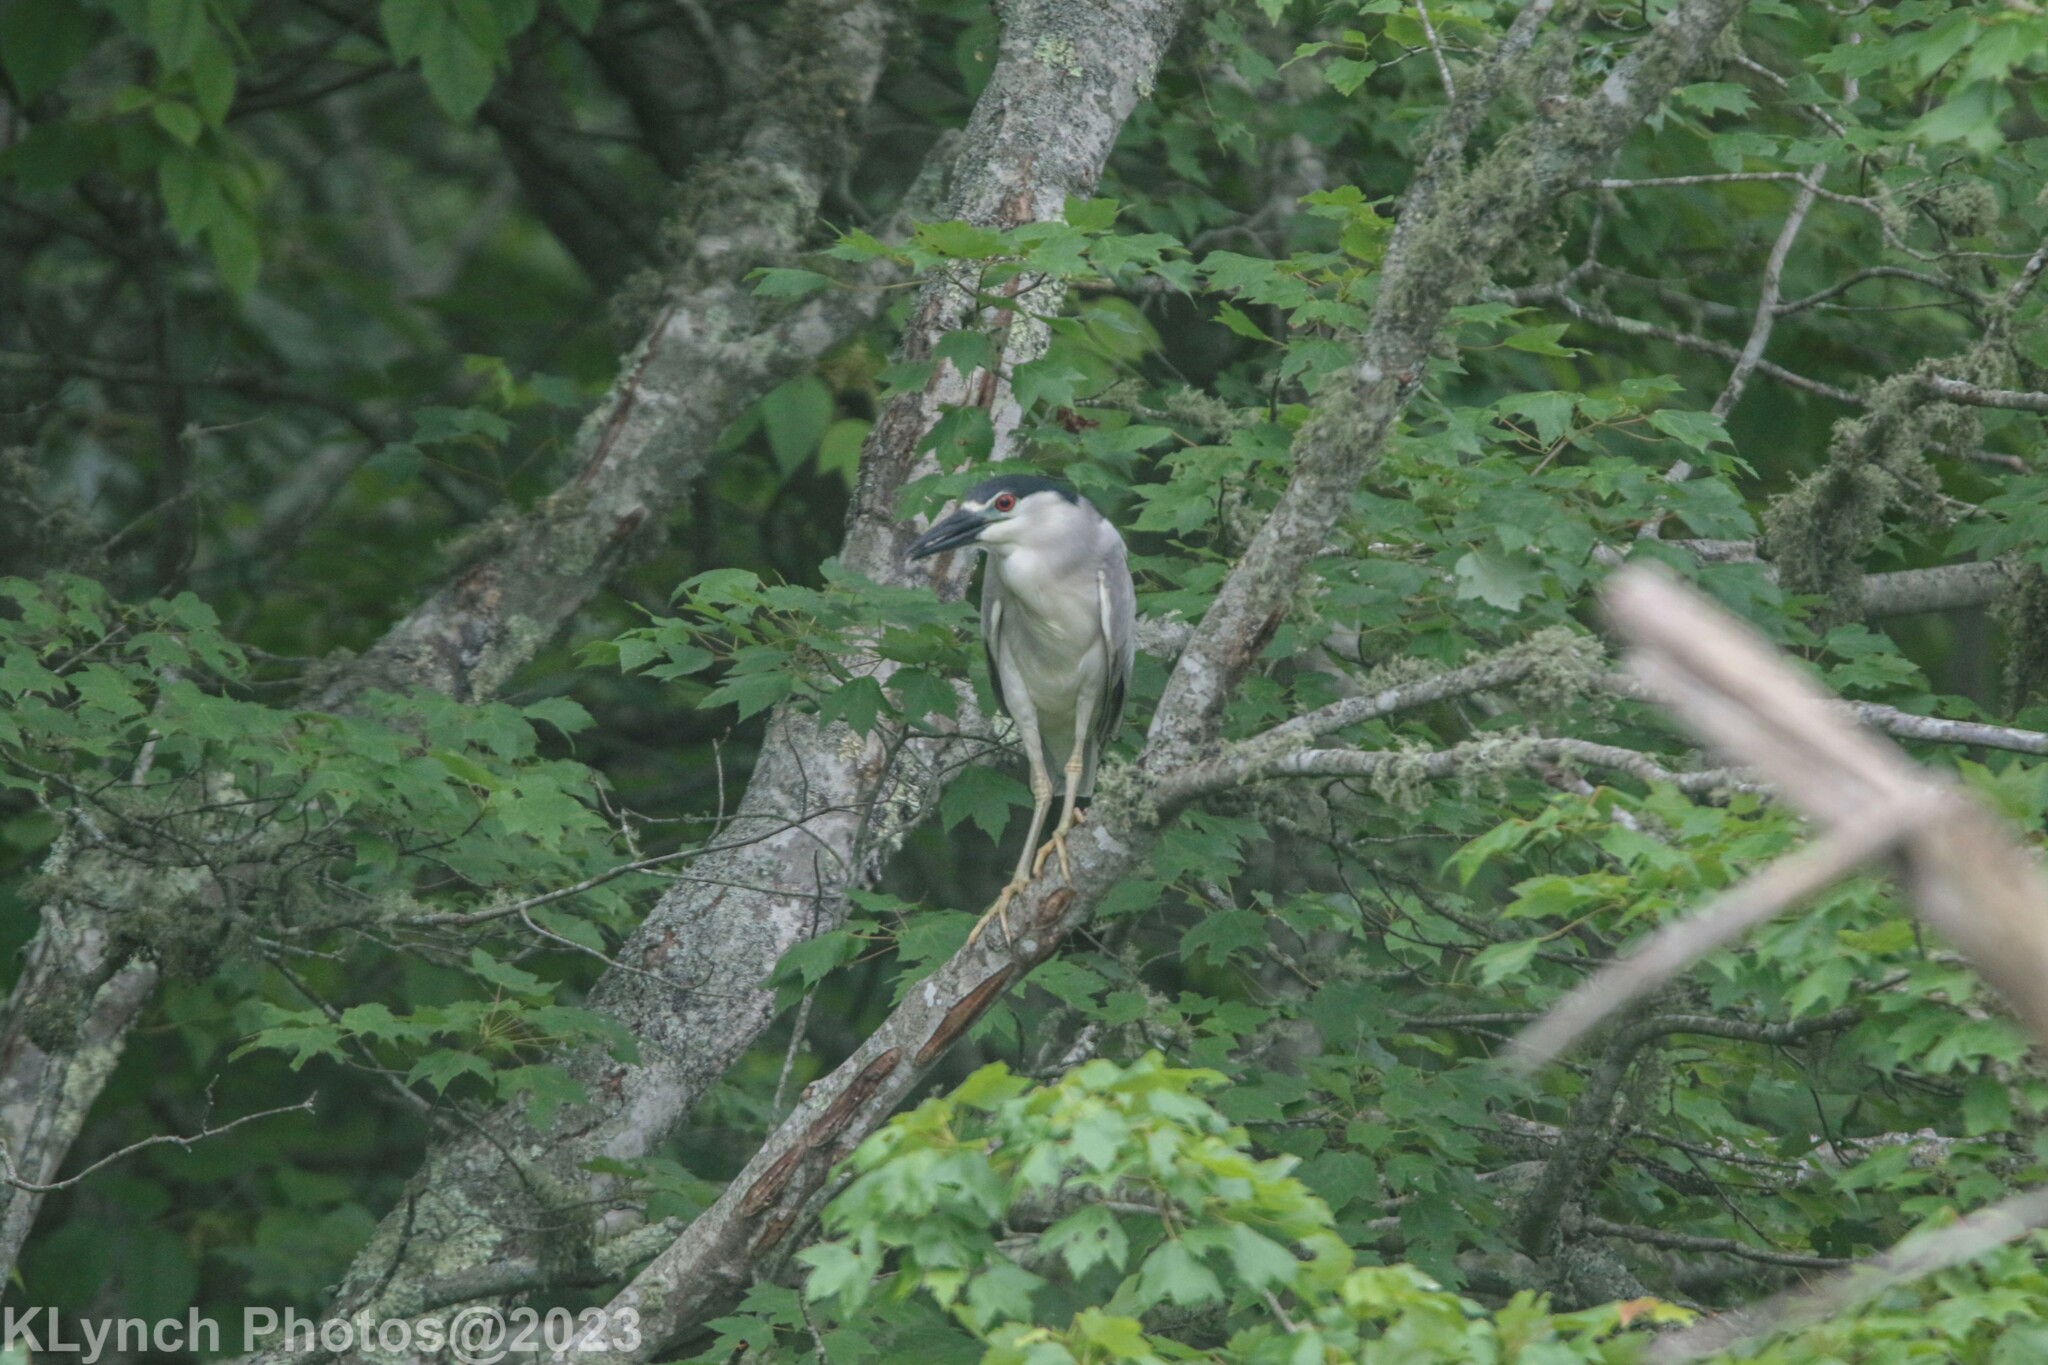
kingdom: Animalia
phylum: Chordata
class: Aves
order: Pelecaniformes
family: Ardeidae
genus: Nycticorax
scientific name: Nycticorax nycticorax
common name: Black-crowned night heron
